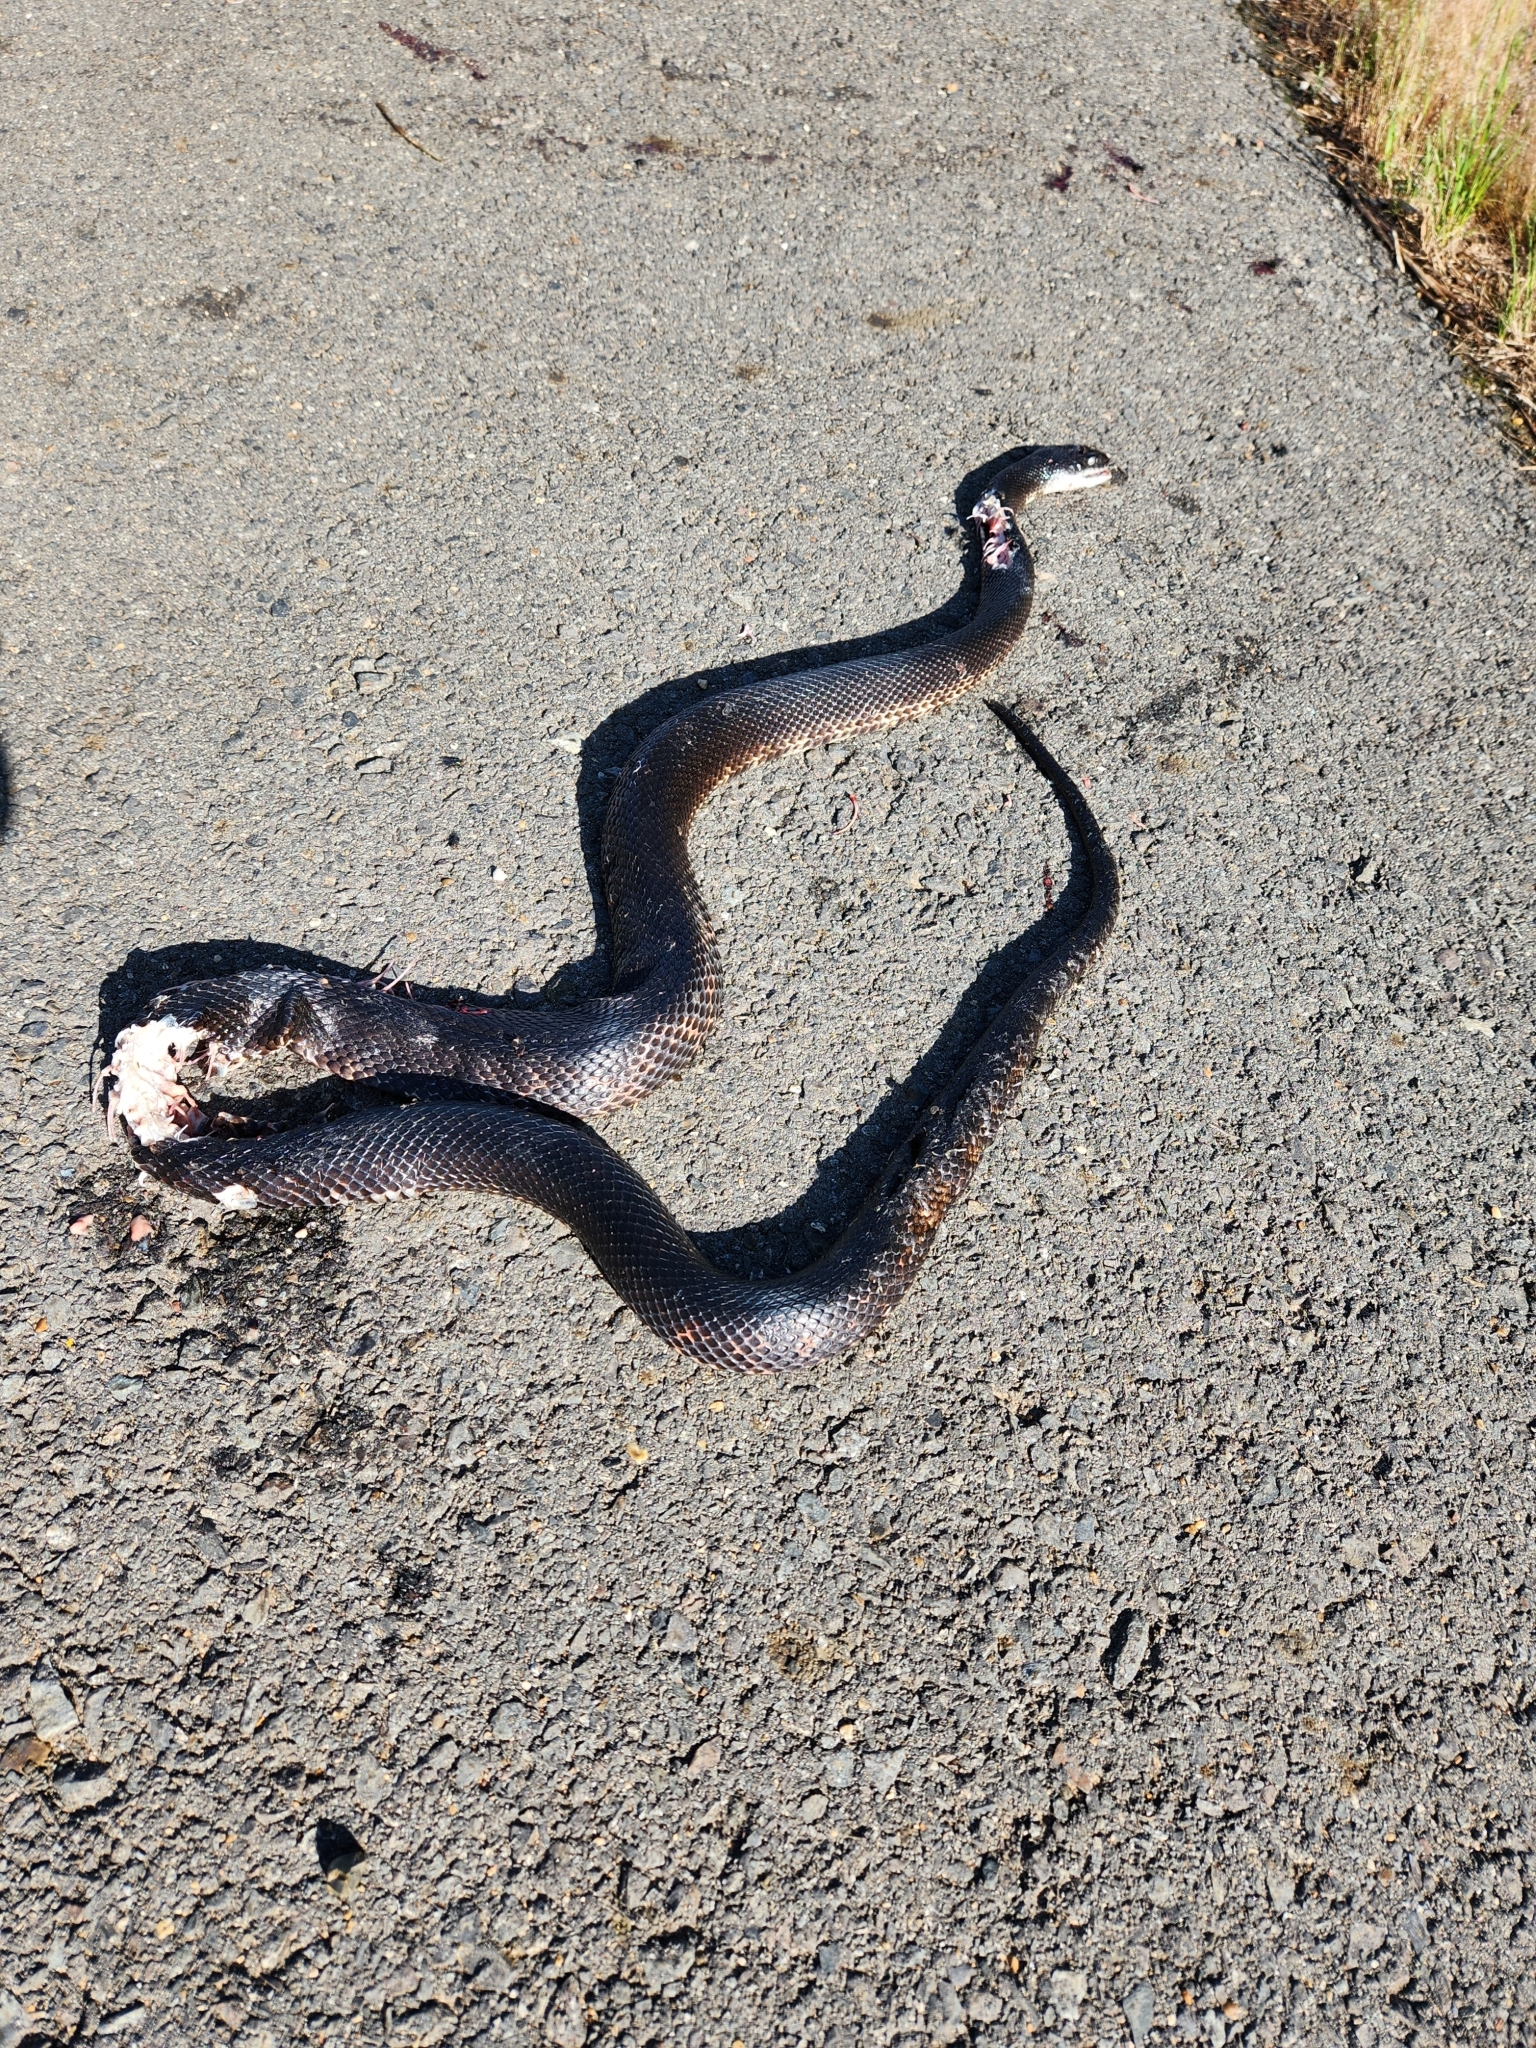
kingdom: Animalia
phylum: Chordata
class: Squamata
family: Colubridae
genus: Pantherophis
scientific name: Pantherophis obsoletus
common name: Black rat snake
